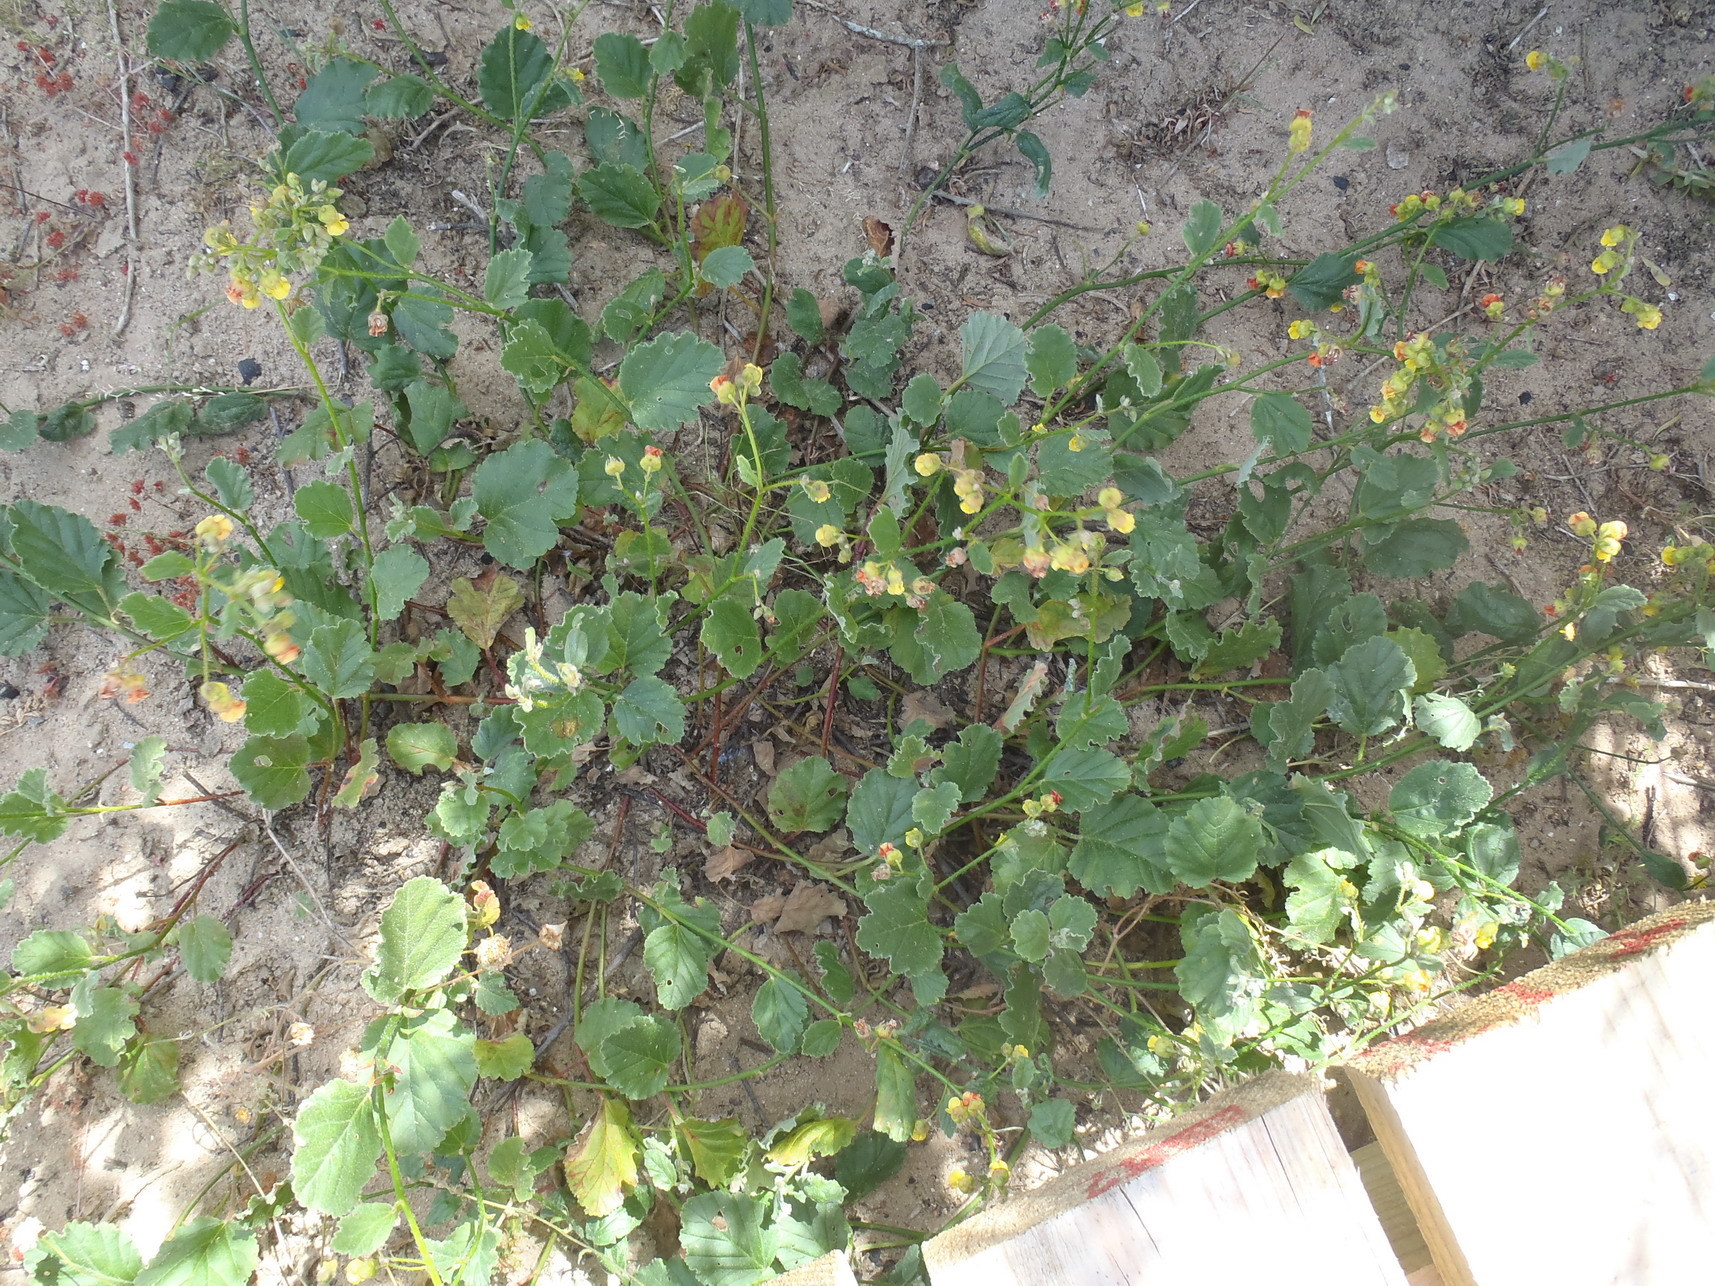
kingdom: Plantae
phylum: Tracheophyta
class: Magnoliopsida
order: Malvales
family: Malvaceae
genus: Hermannia
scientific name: Hermannia scordifolia
